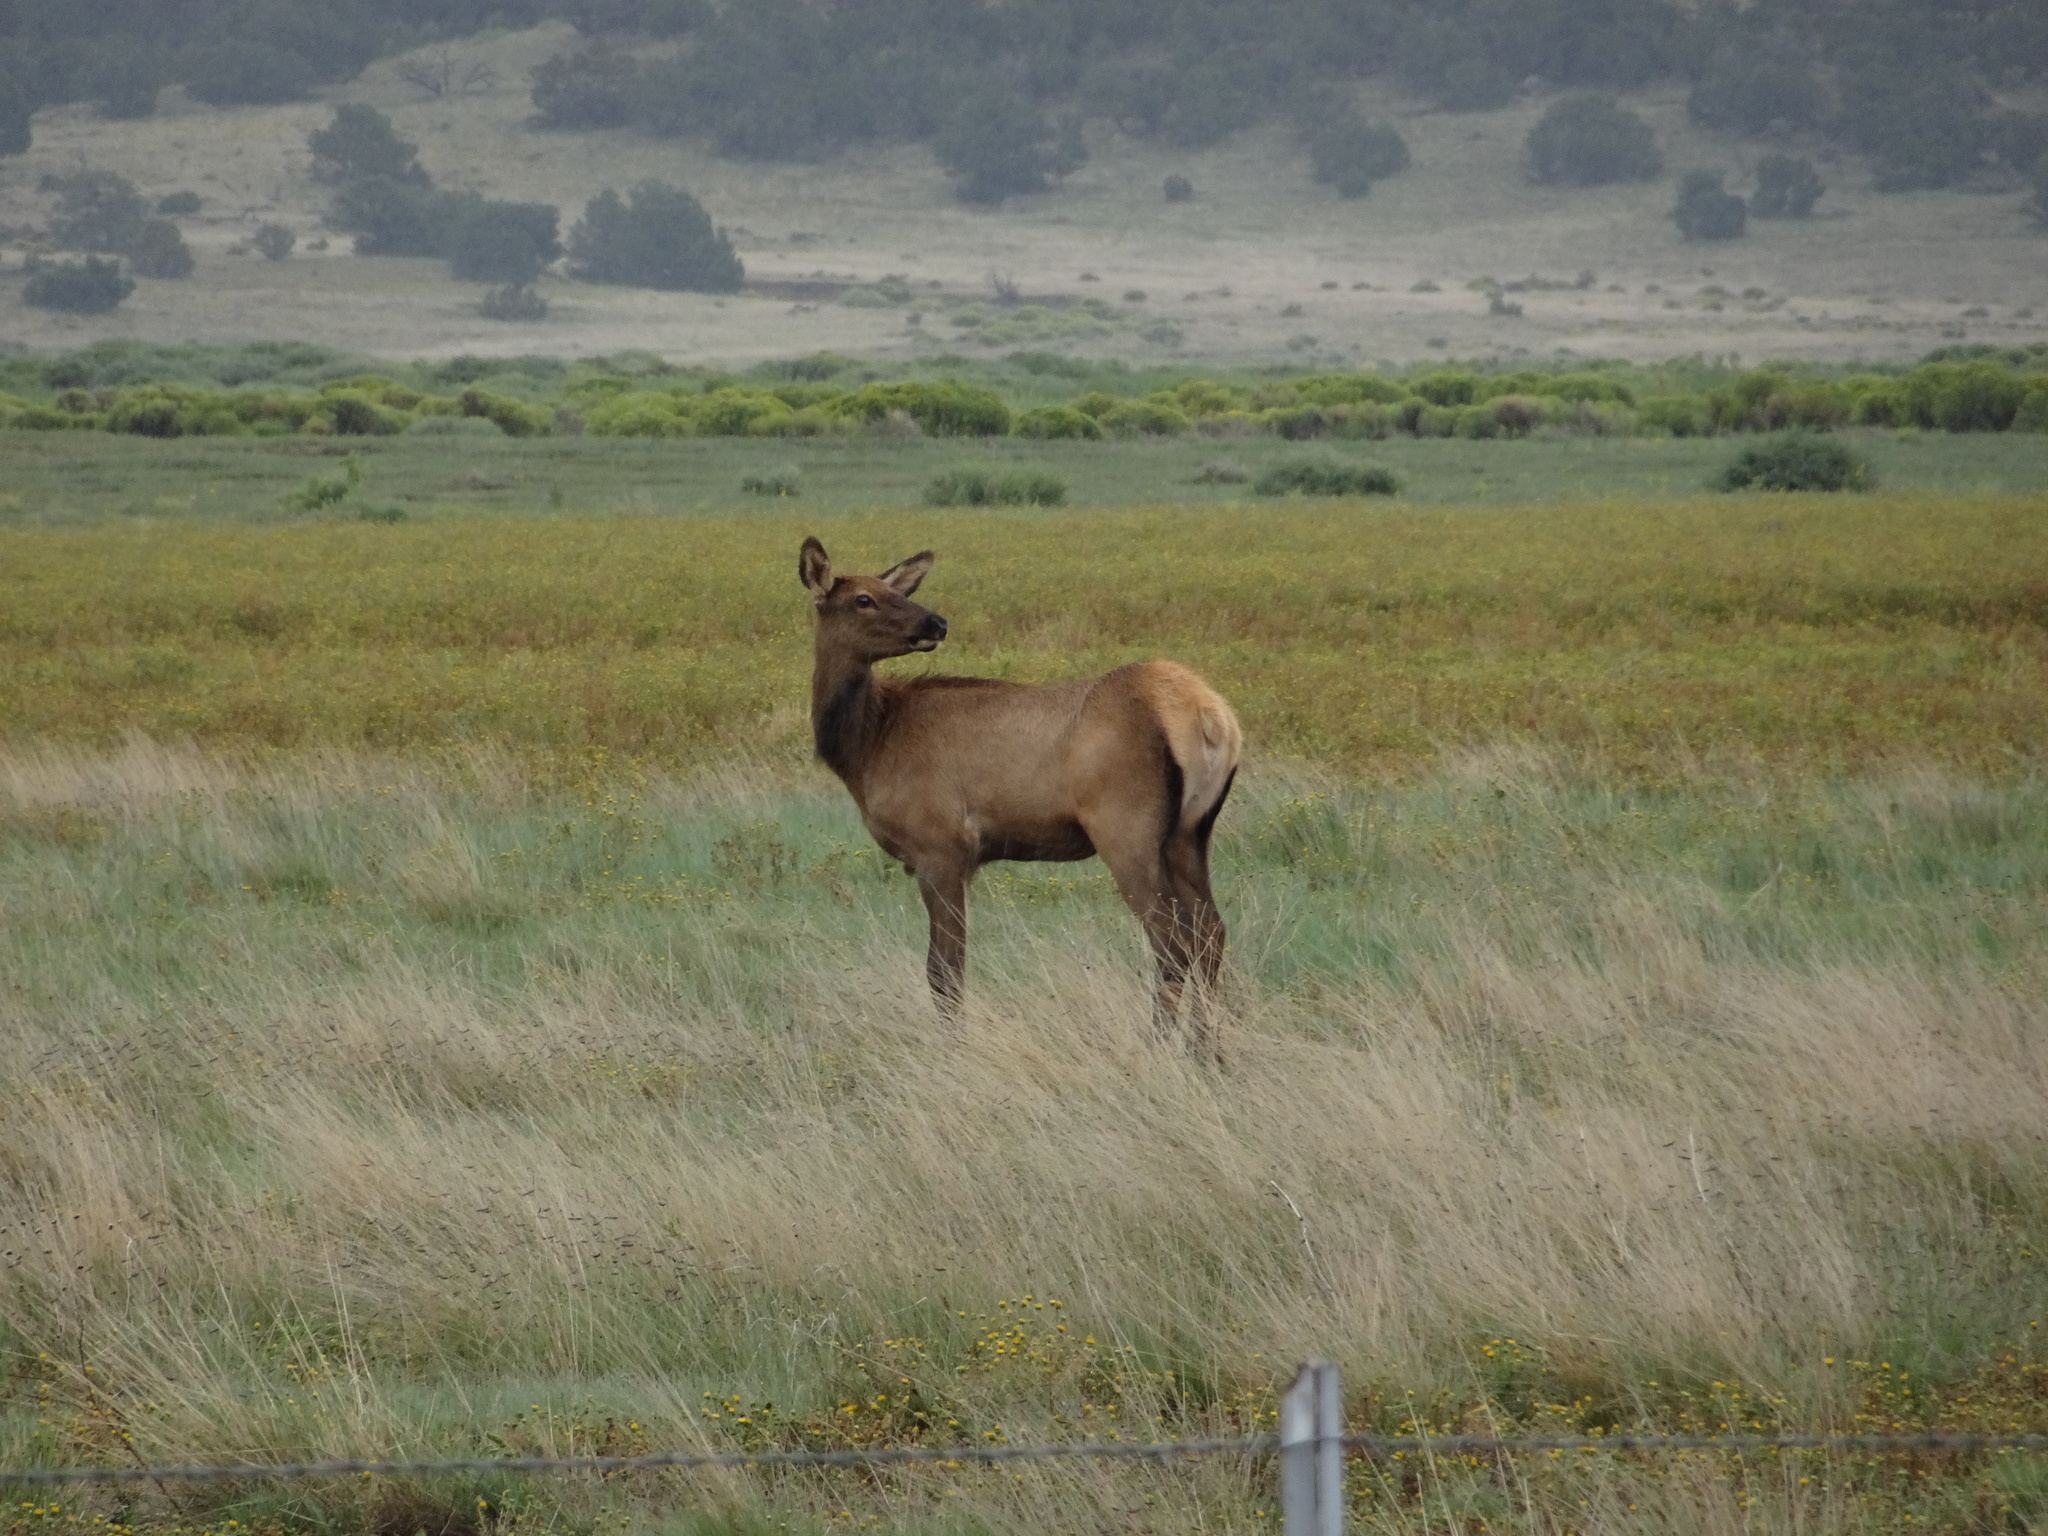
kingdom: Animalia
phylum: Chordata
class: Mammalia
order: Artiodactyla
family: Cervidae
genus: Cervus
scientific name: Cervus elaphus
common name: Red deer
